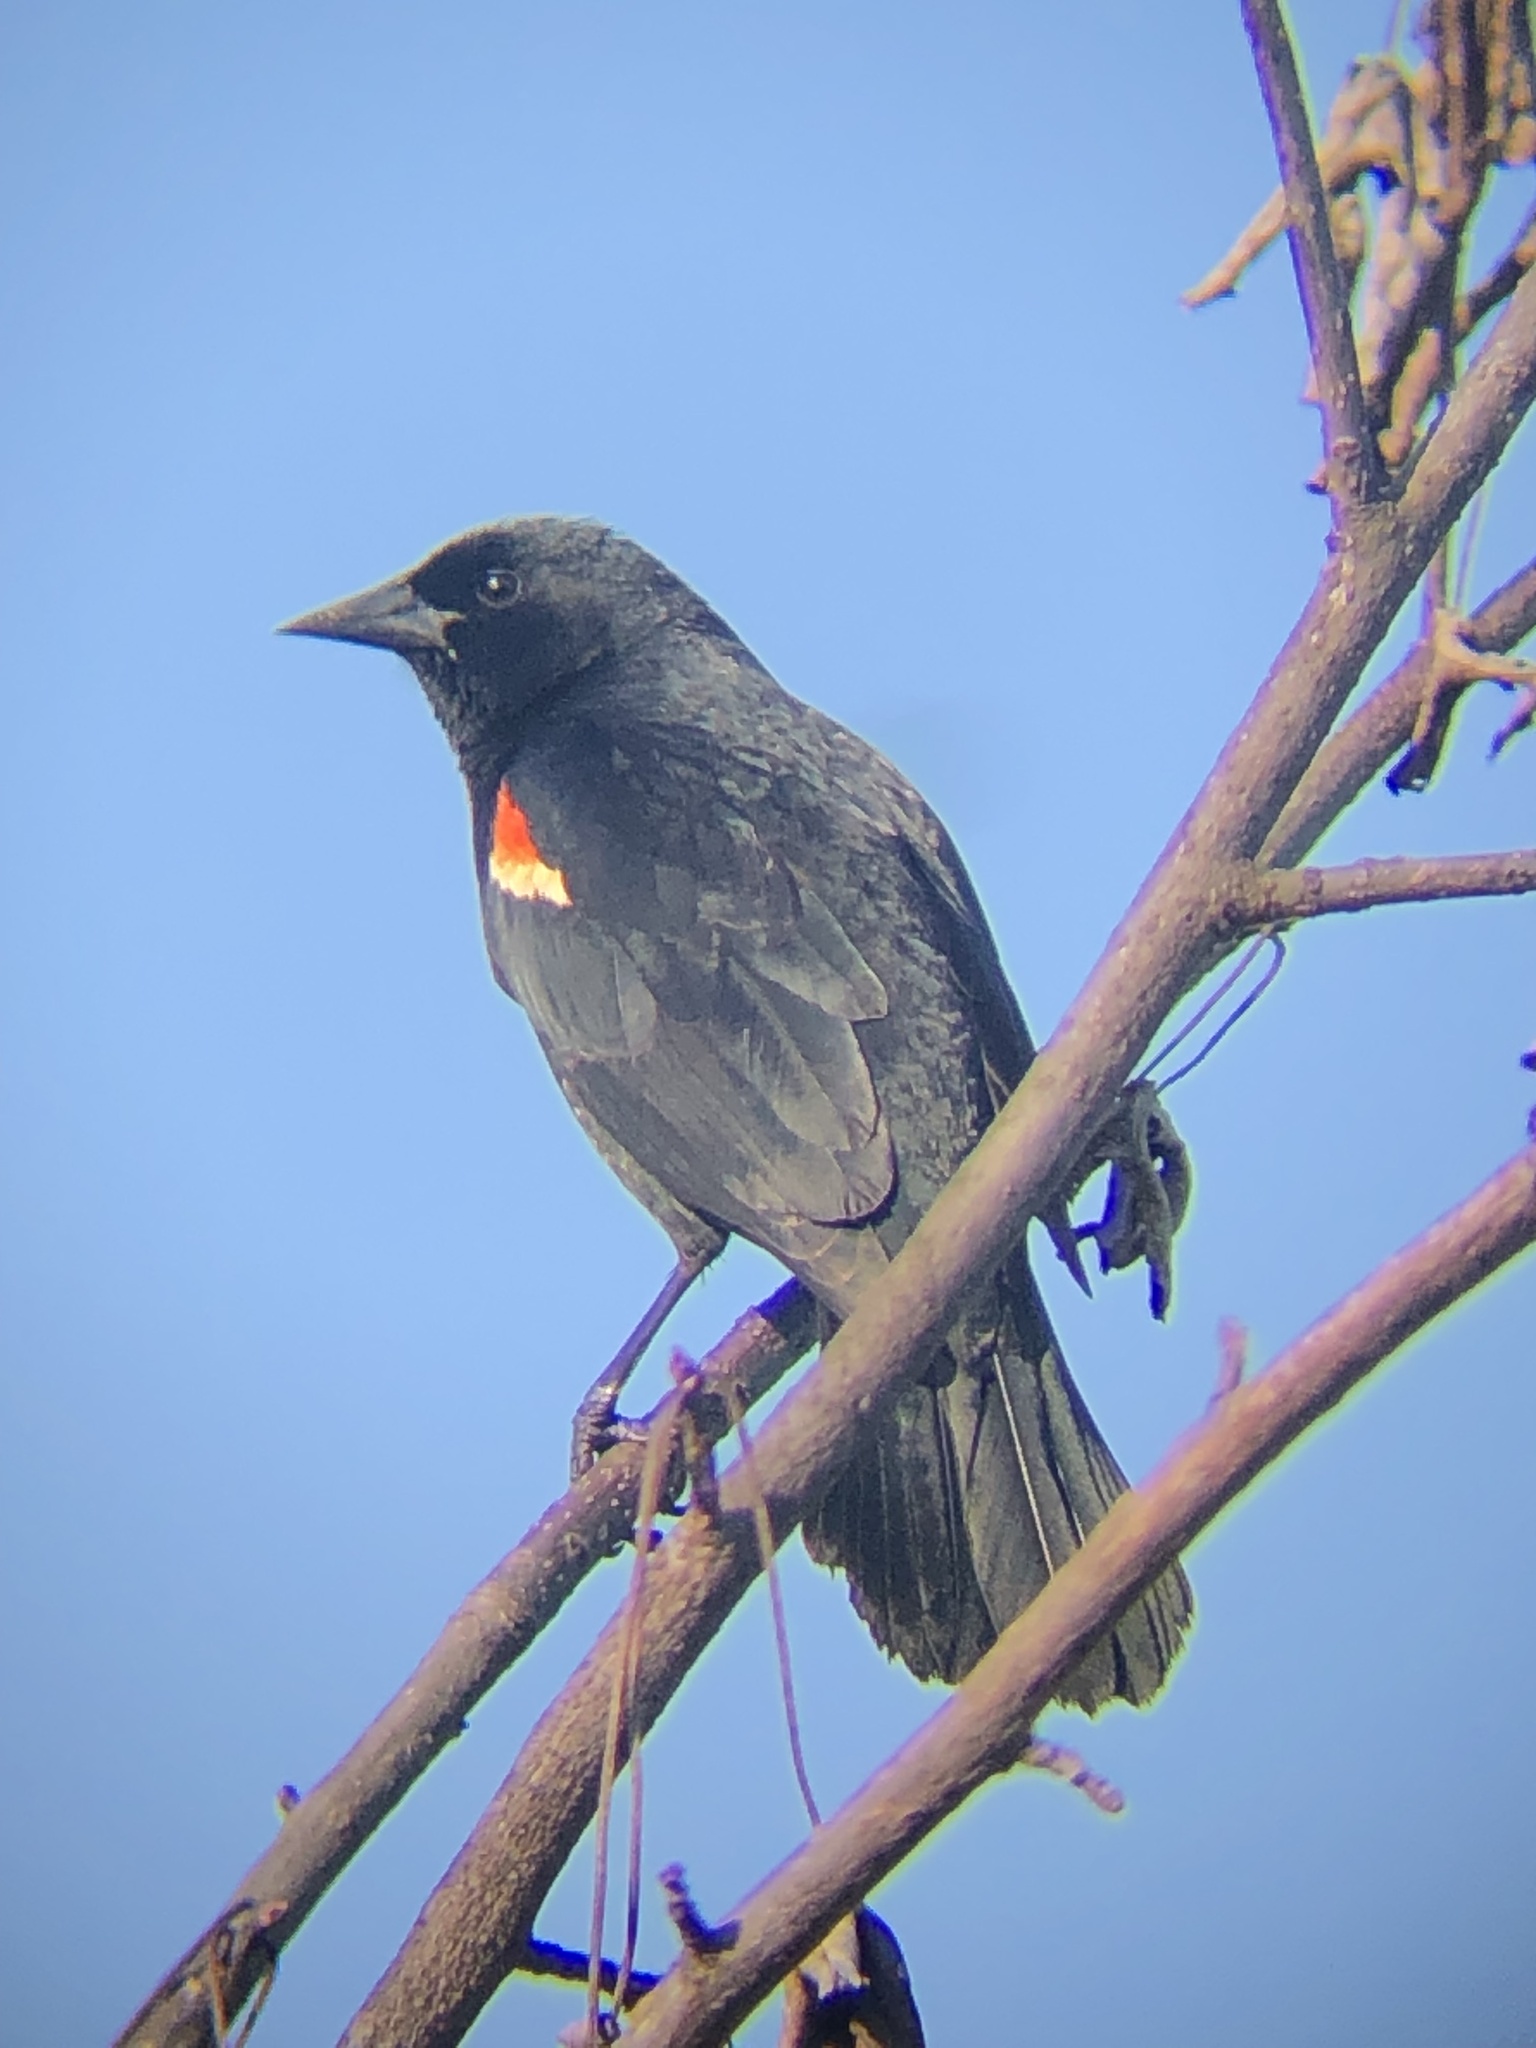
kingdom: Animalia
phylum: Chordata
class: Aves
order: Passeriformes
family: Icteridae
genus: Agelaius
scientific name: Agelaius phoeniceus
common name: Red-winged blackbird
